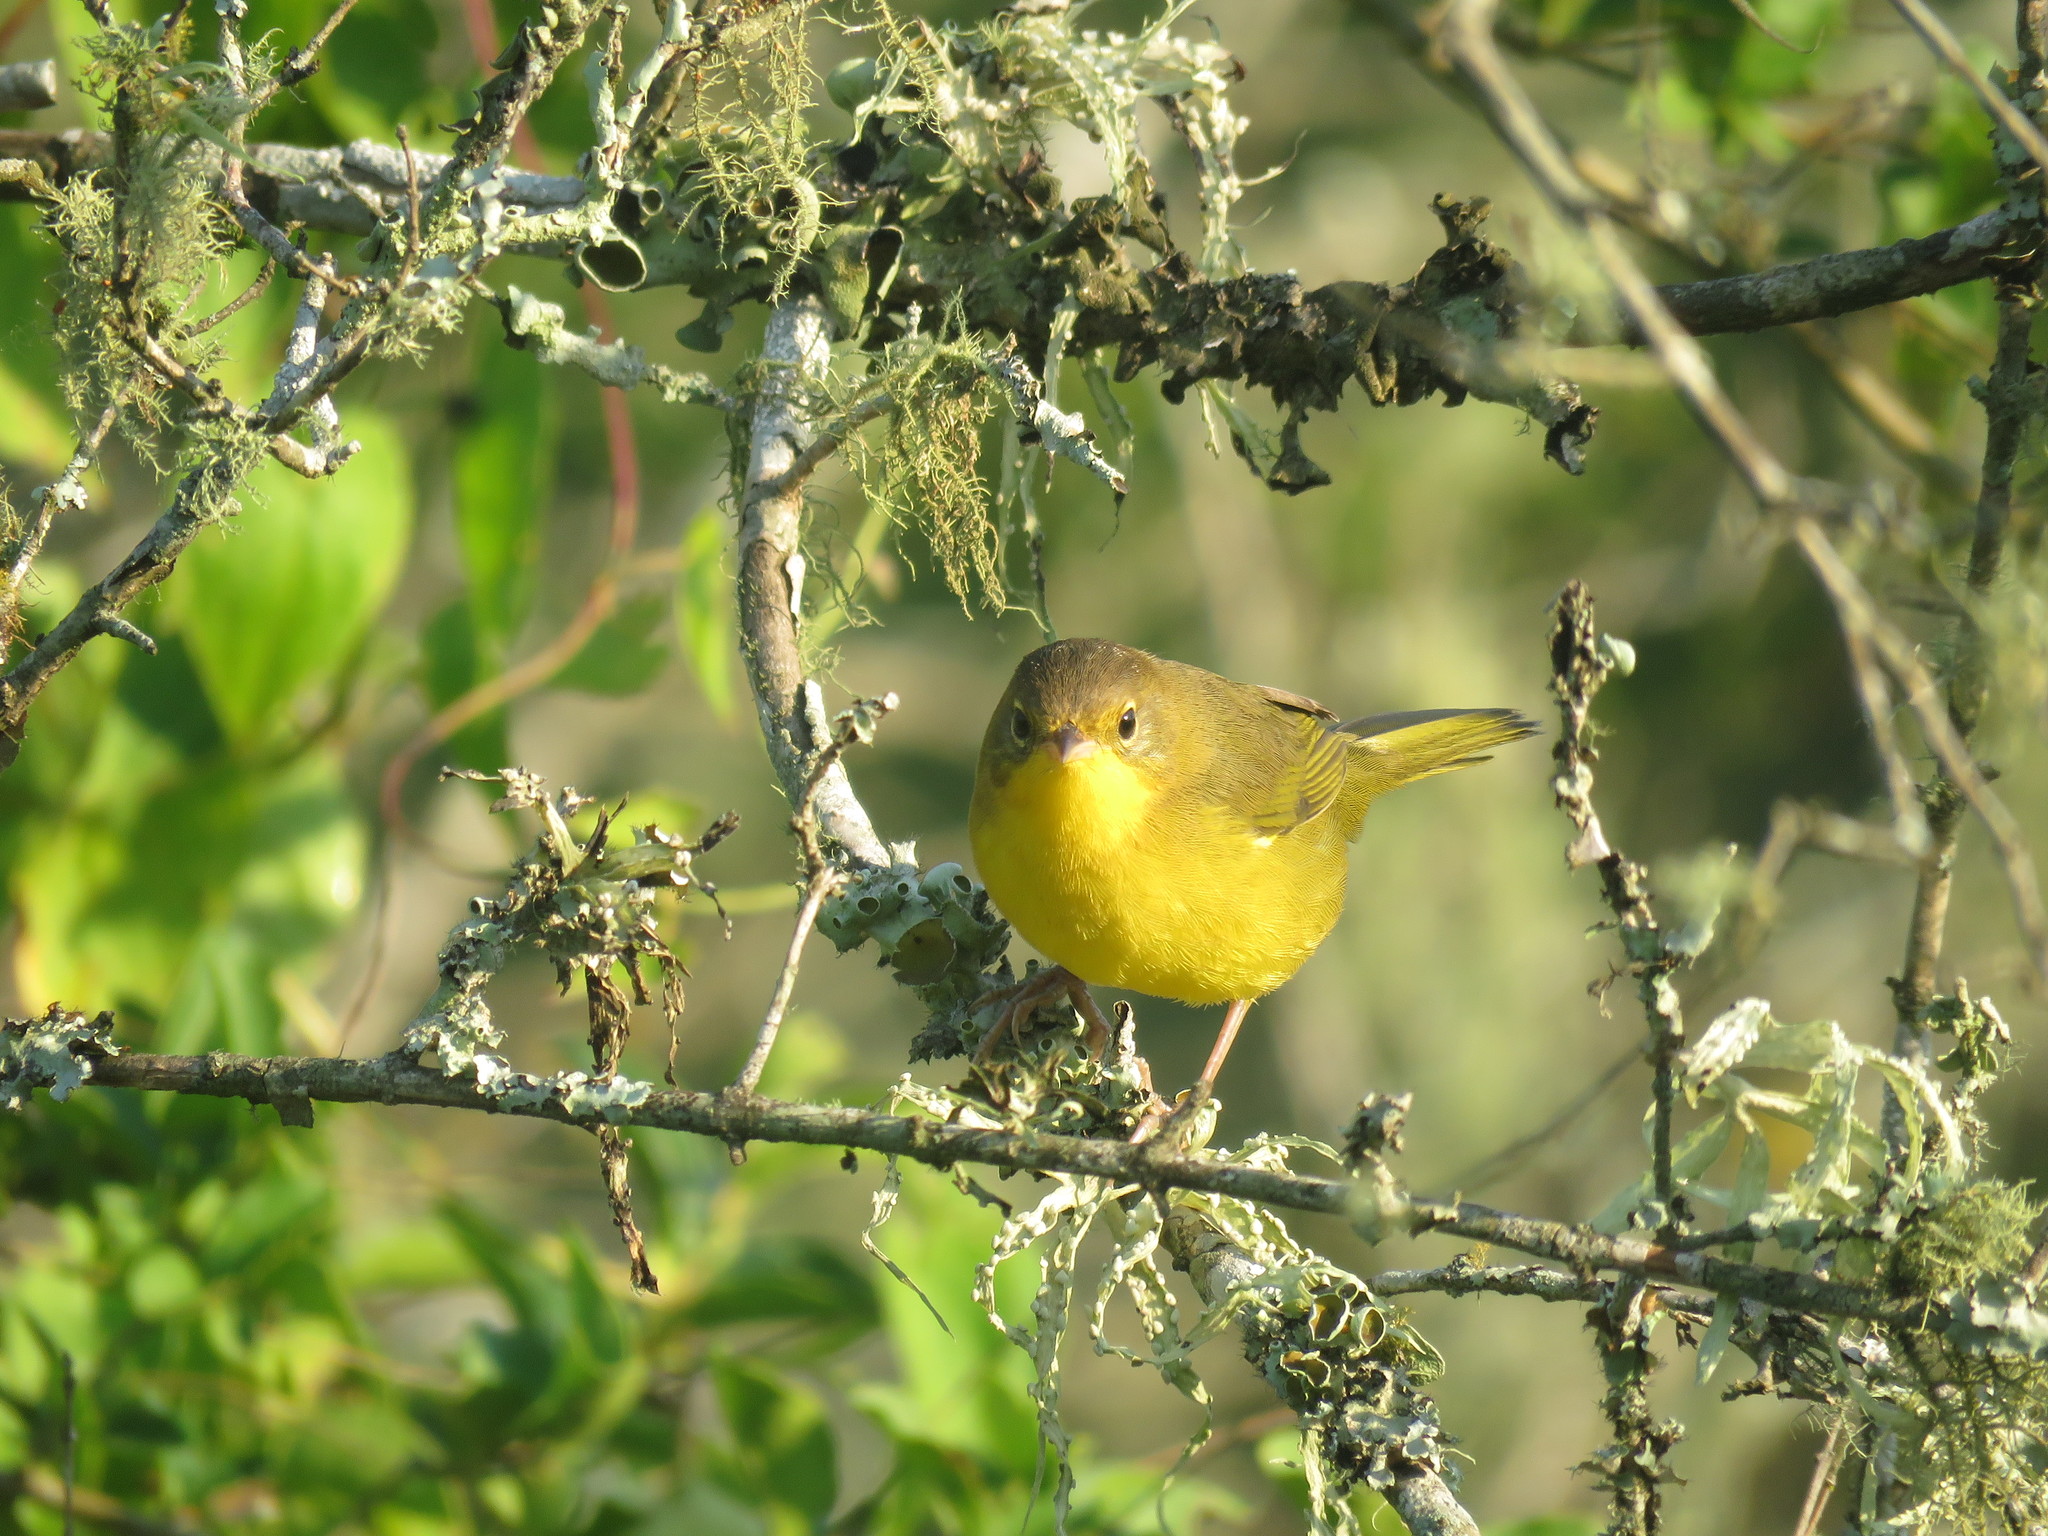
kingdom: Animalia
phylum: Chordata
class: Aves
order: Passeriformes
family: Parulidae
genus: Geothlypis
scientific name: Geothlypis velata
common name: Southern yellowthroat
